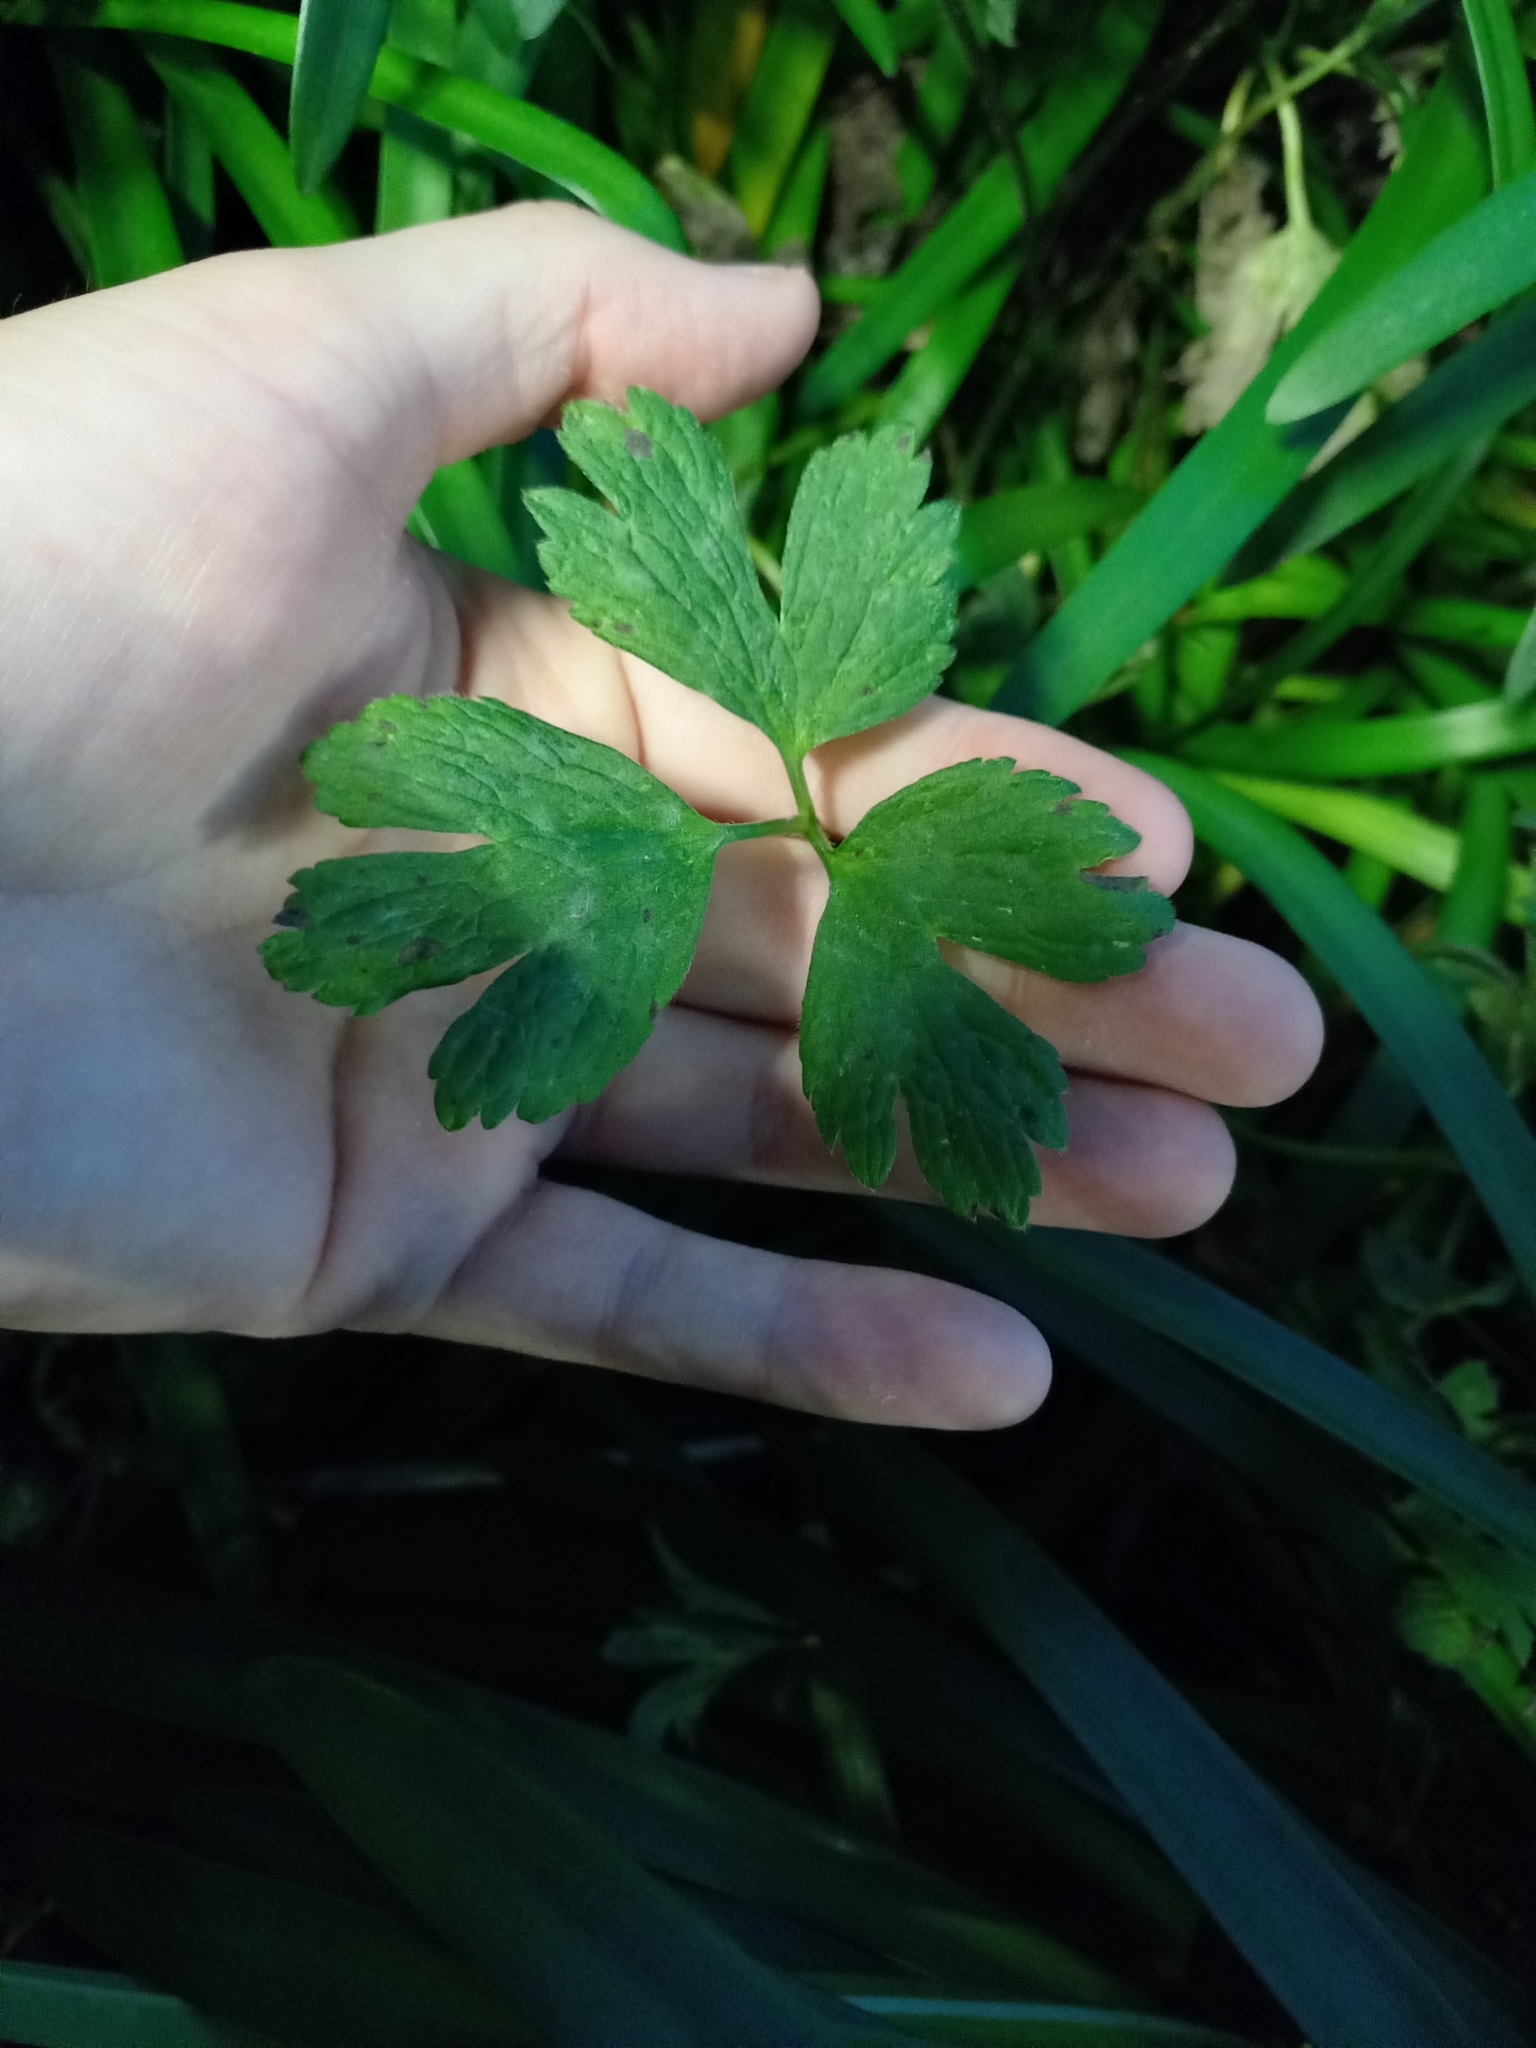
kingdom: Plantae
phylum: Tracheophyta
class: Magnoliopsida
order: Ranunculales
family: Ranunculaceae
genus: Ranunculus
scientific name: Ranunculus repens
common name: Creeping buttercup
